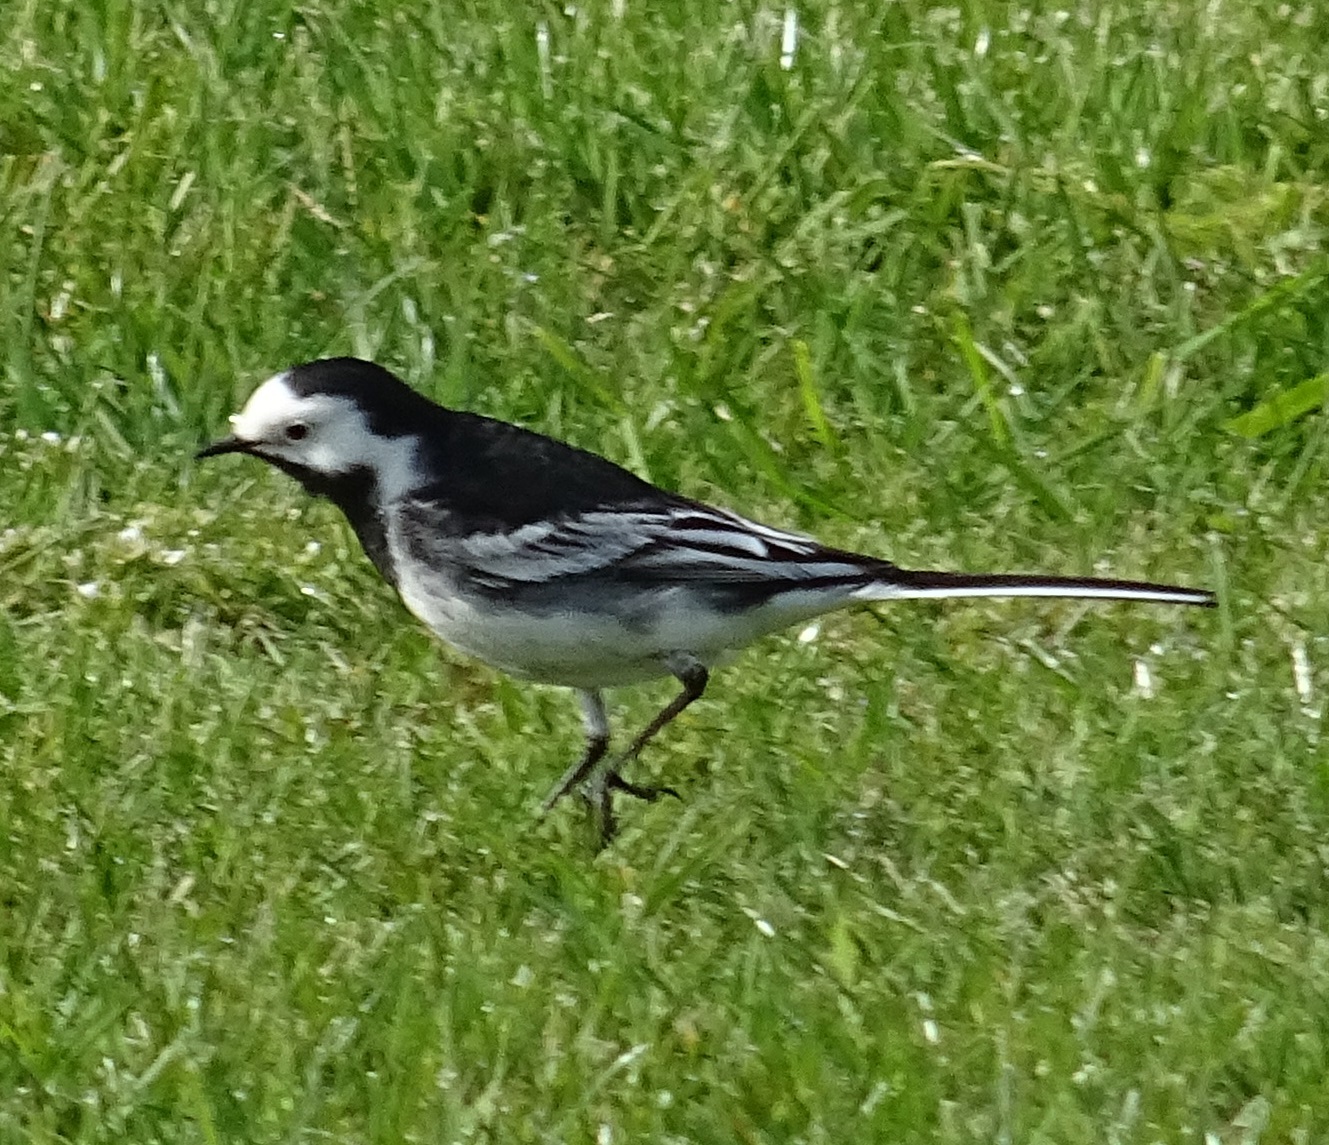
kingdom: Animalia
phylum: Chordata
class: Aves
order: Passeriformes
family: Motacillidae
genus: Motacilla
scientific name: Motacilla alba
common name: White wagtail
